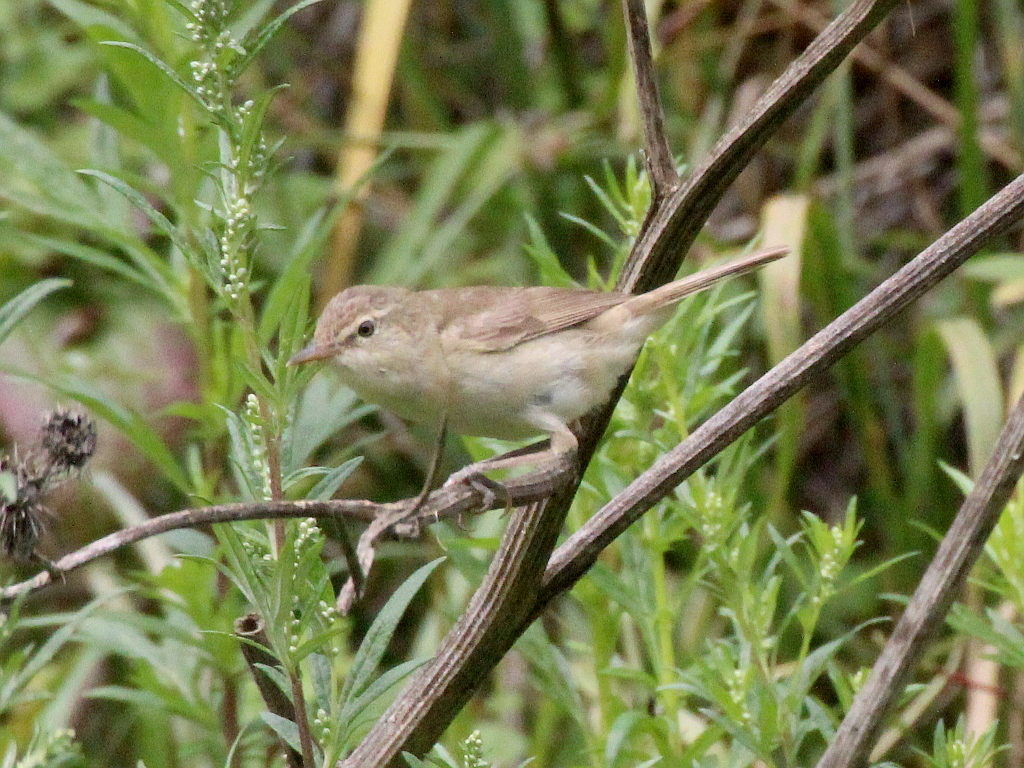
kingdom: Animalia
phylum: Chordata
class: Aves
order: Passeriformes
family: Acrocephalidae
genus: Acrocephalus
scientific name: Acrocephalus dumetorum
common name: Blyth's reed warbler
